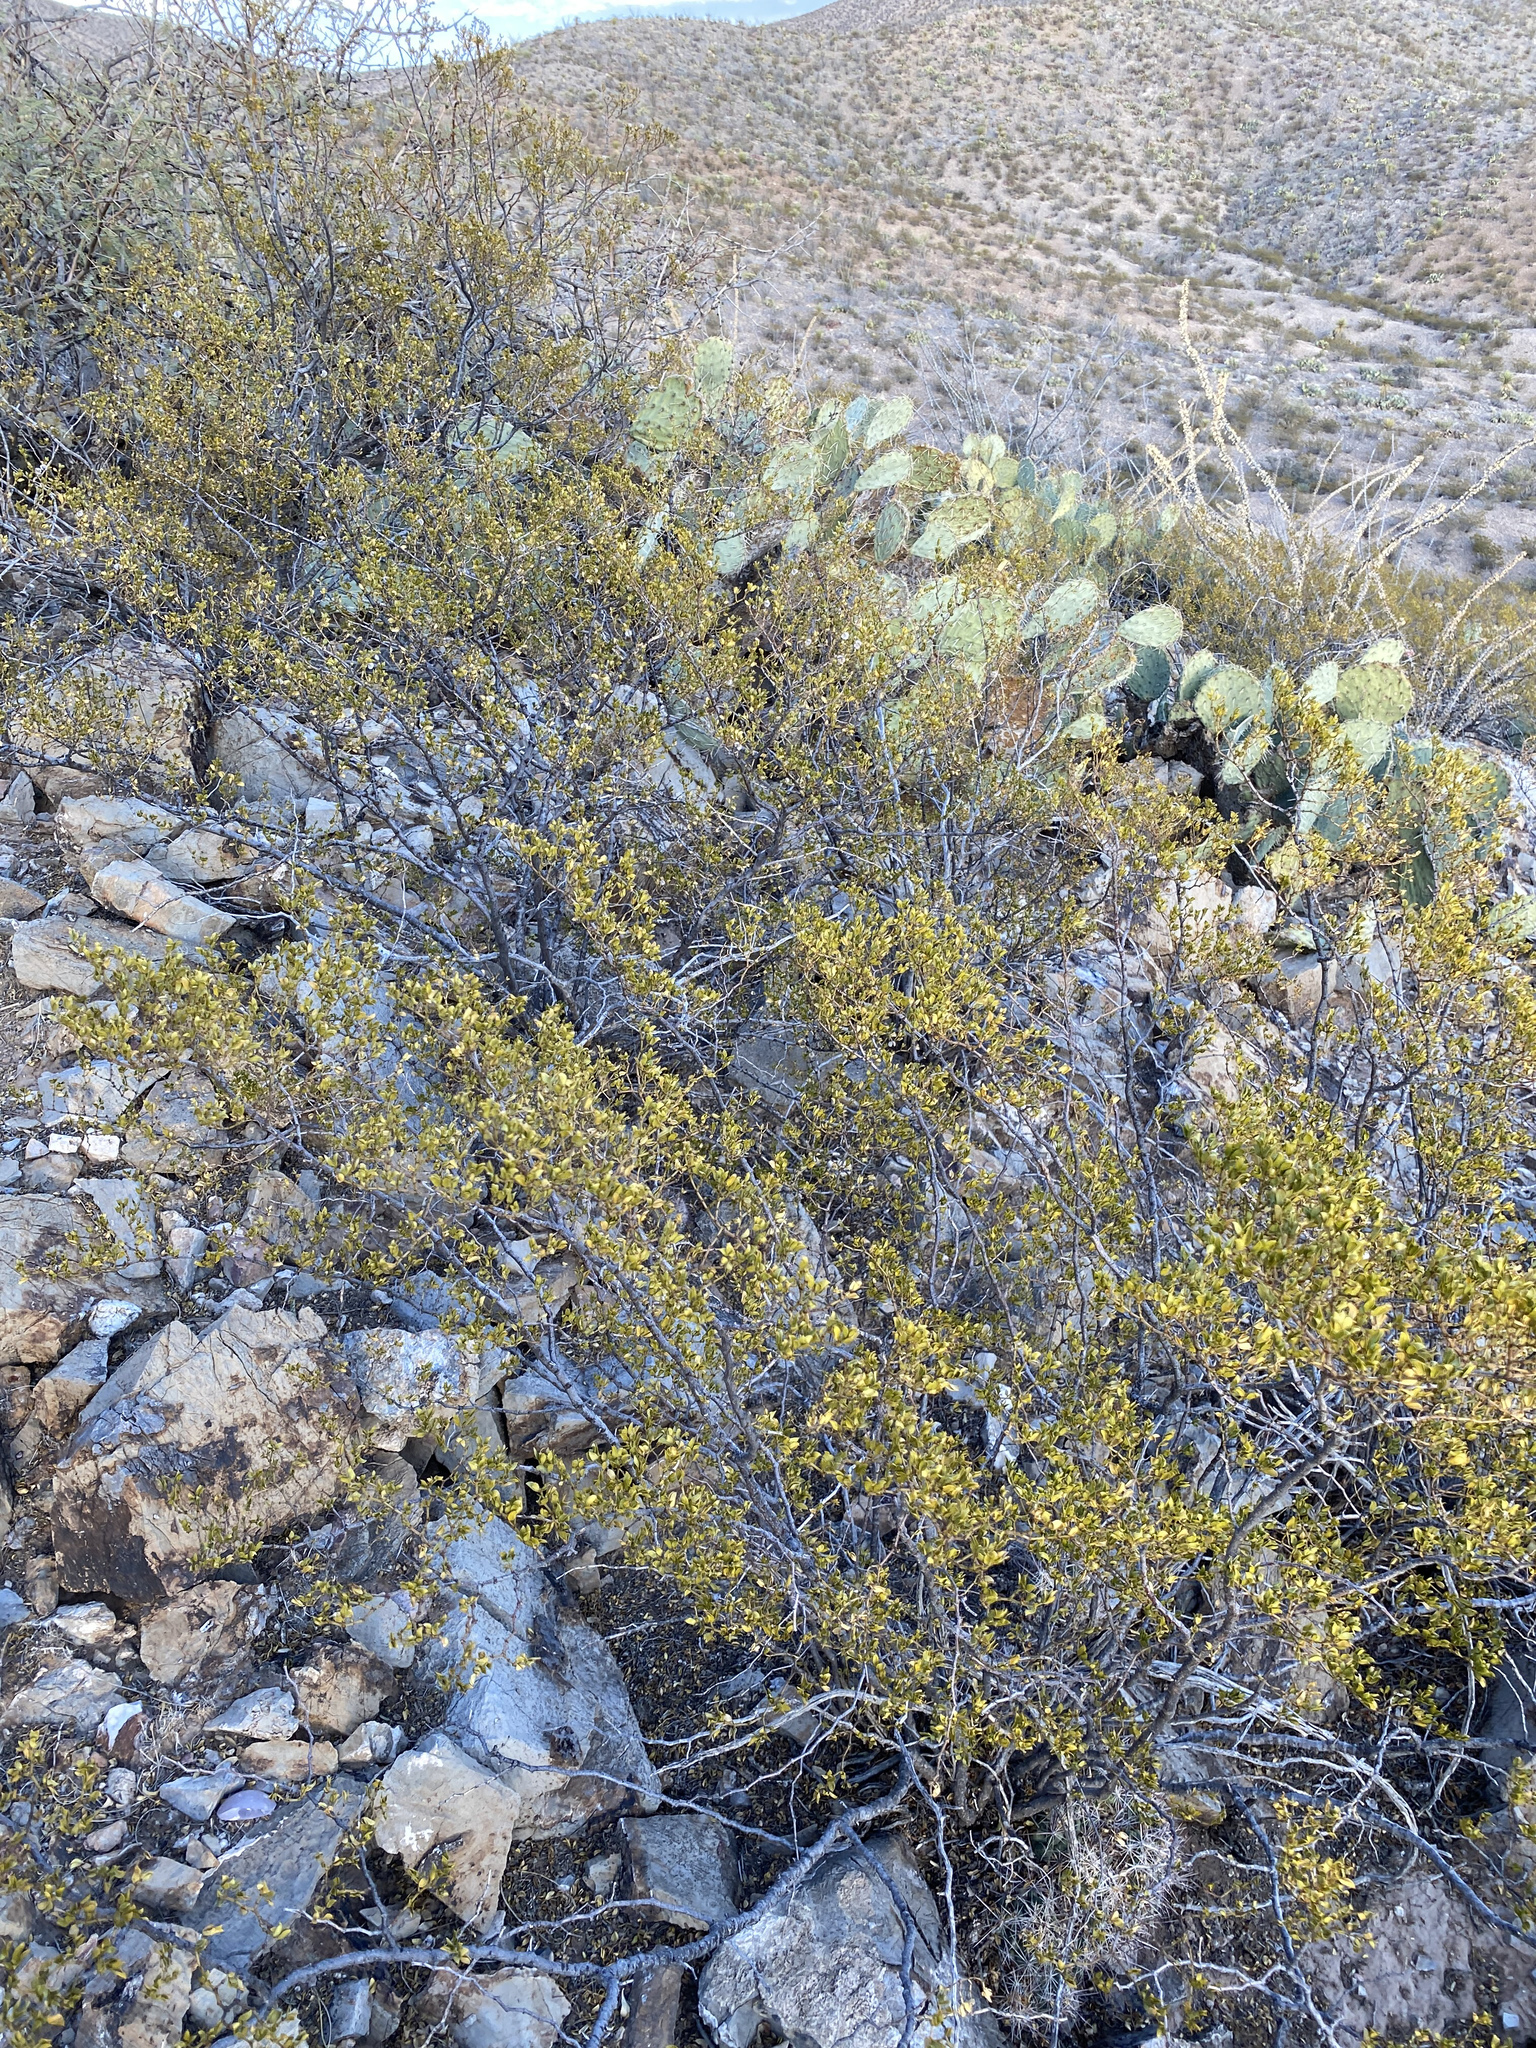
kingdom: Plantae
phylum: Tracheophyta
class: Magnoliopsida
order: Zygophyllales
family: Zygophyllaceae
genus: Larrea
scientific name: Larrea tridentata
